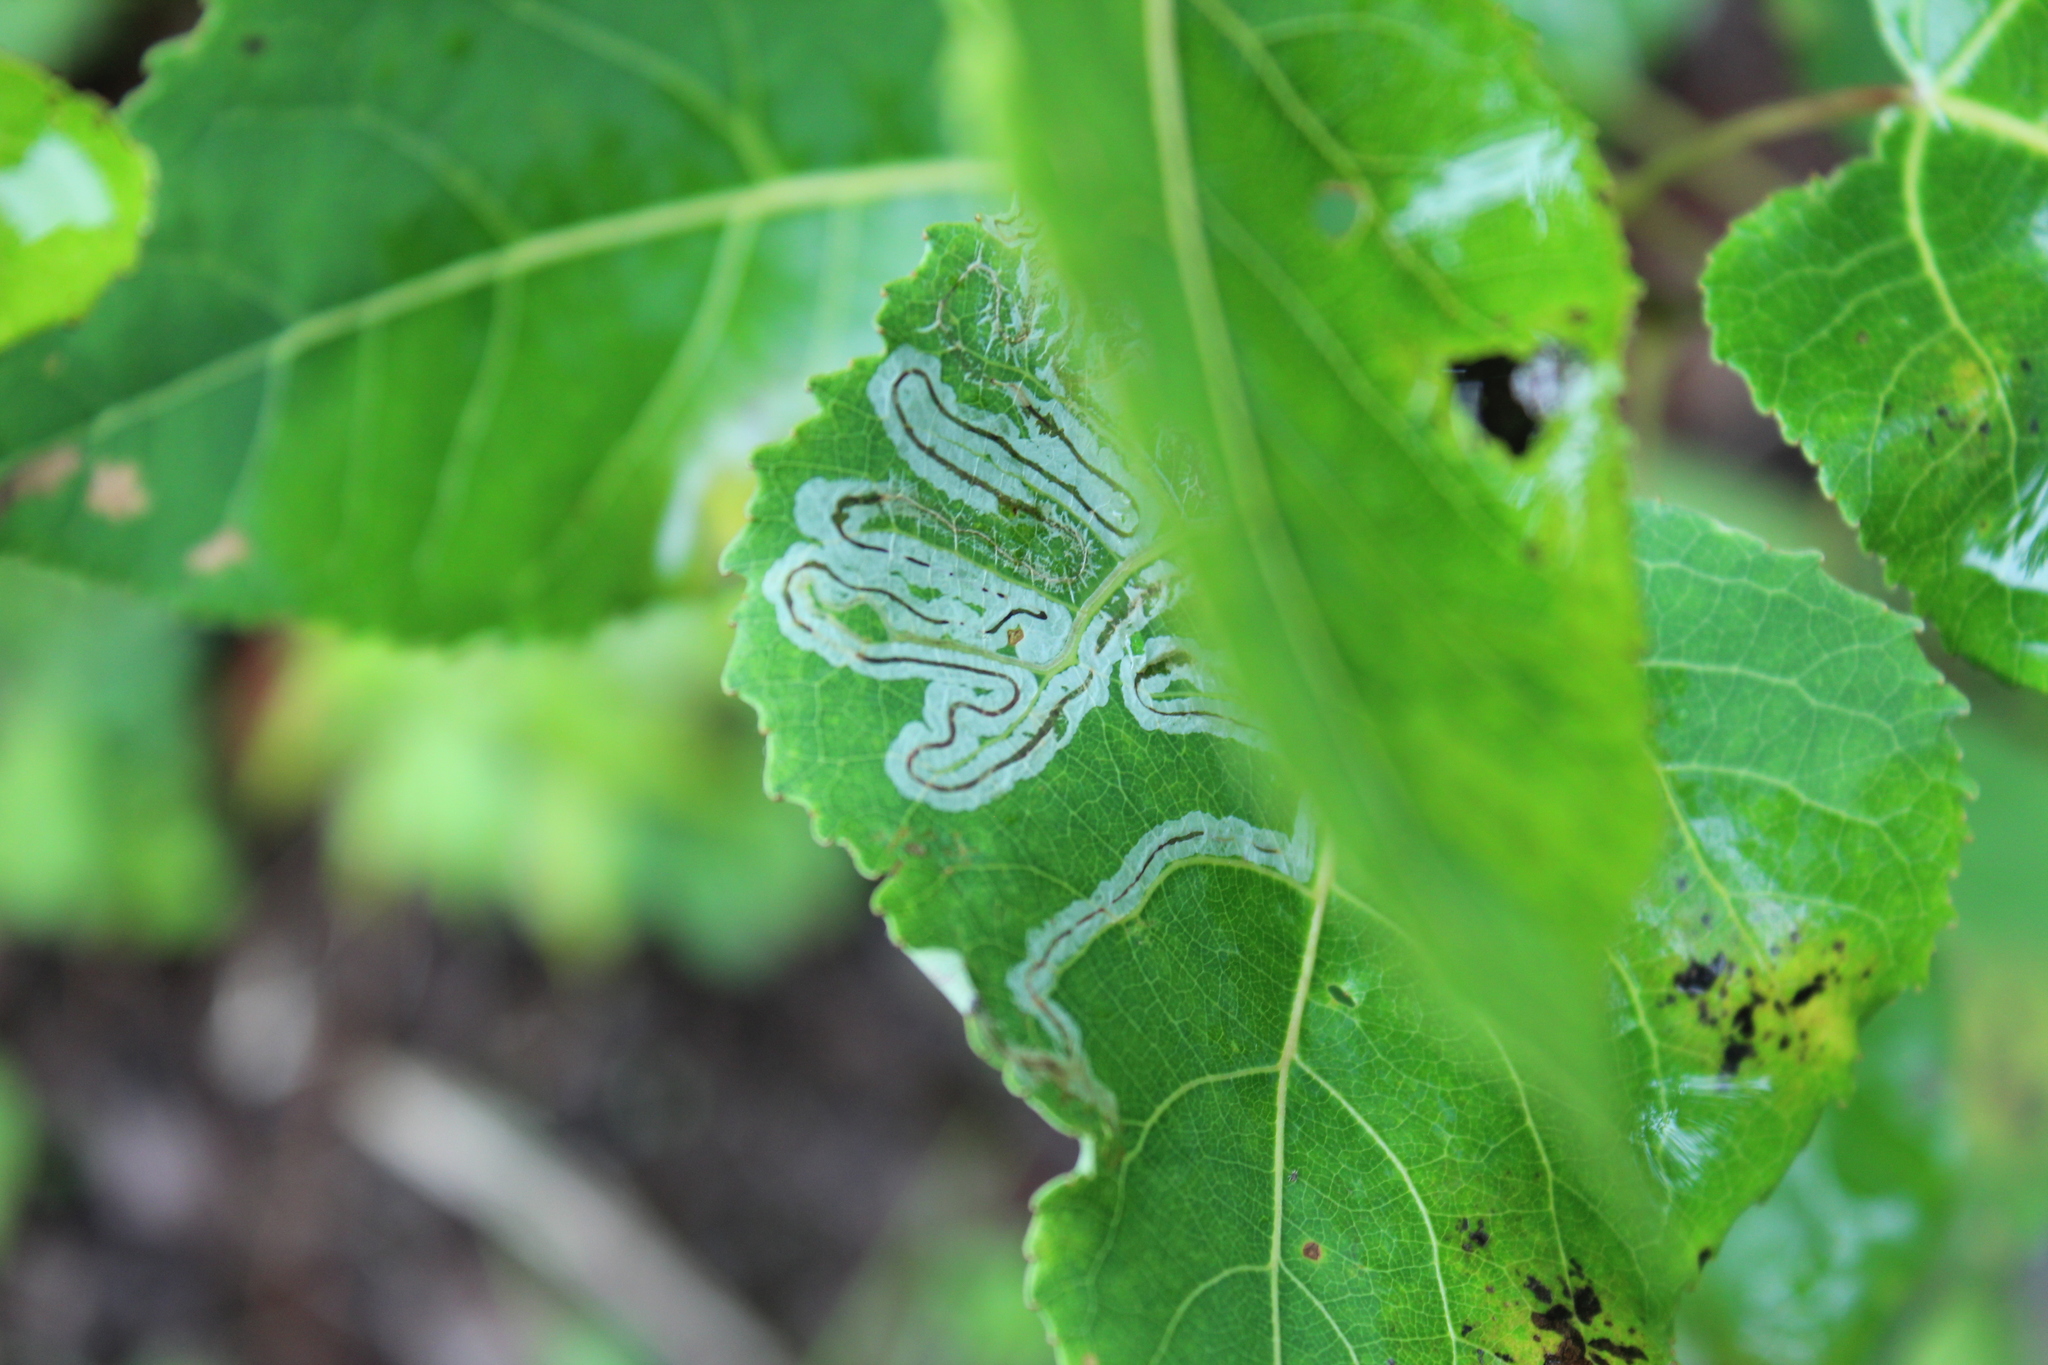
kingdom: Animalia
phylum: Arthropoda
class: Insecta
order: Lepidoptera
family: Gracillariidae
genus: Phyllocnistis
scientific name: Phyllocnistis populiella
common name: Aspen serpentine leafminer moth
